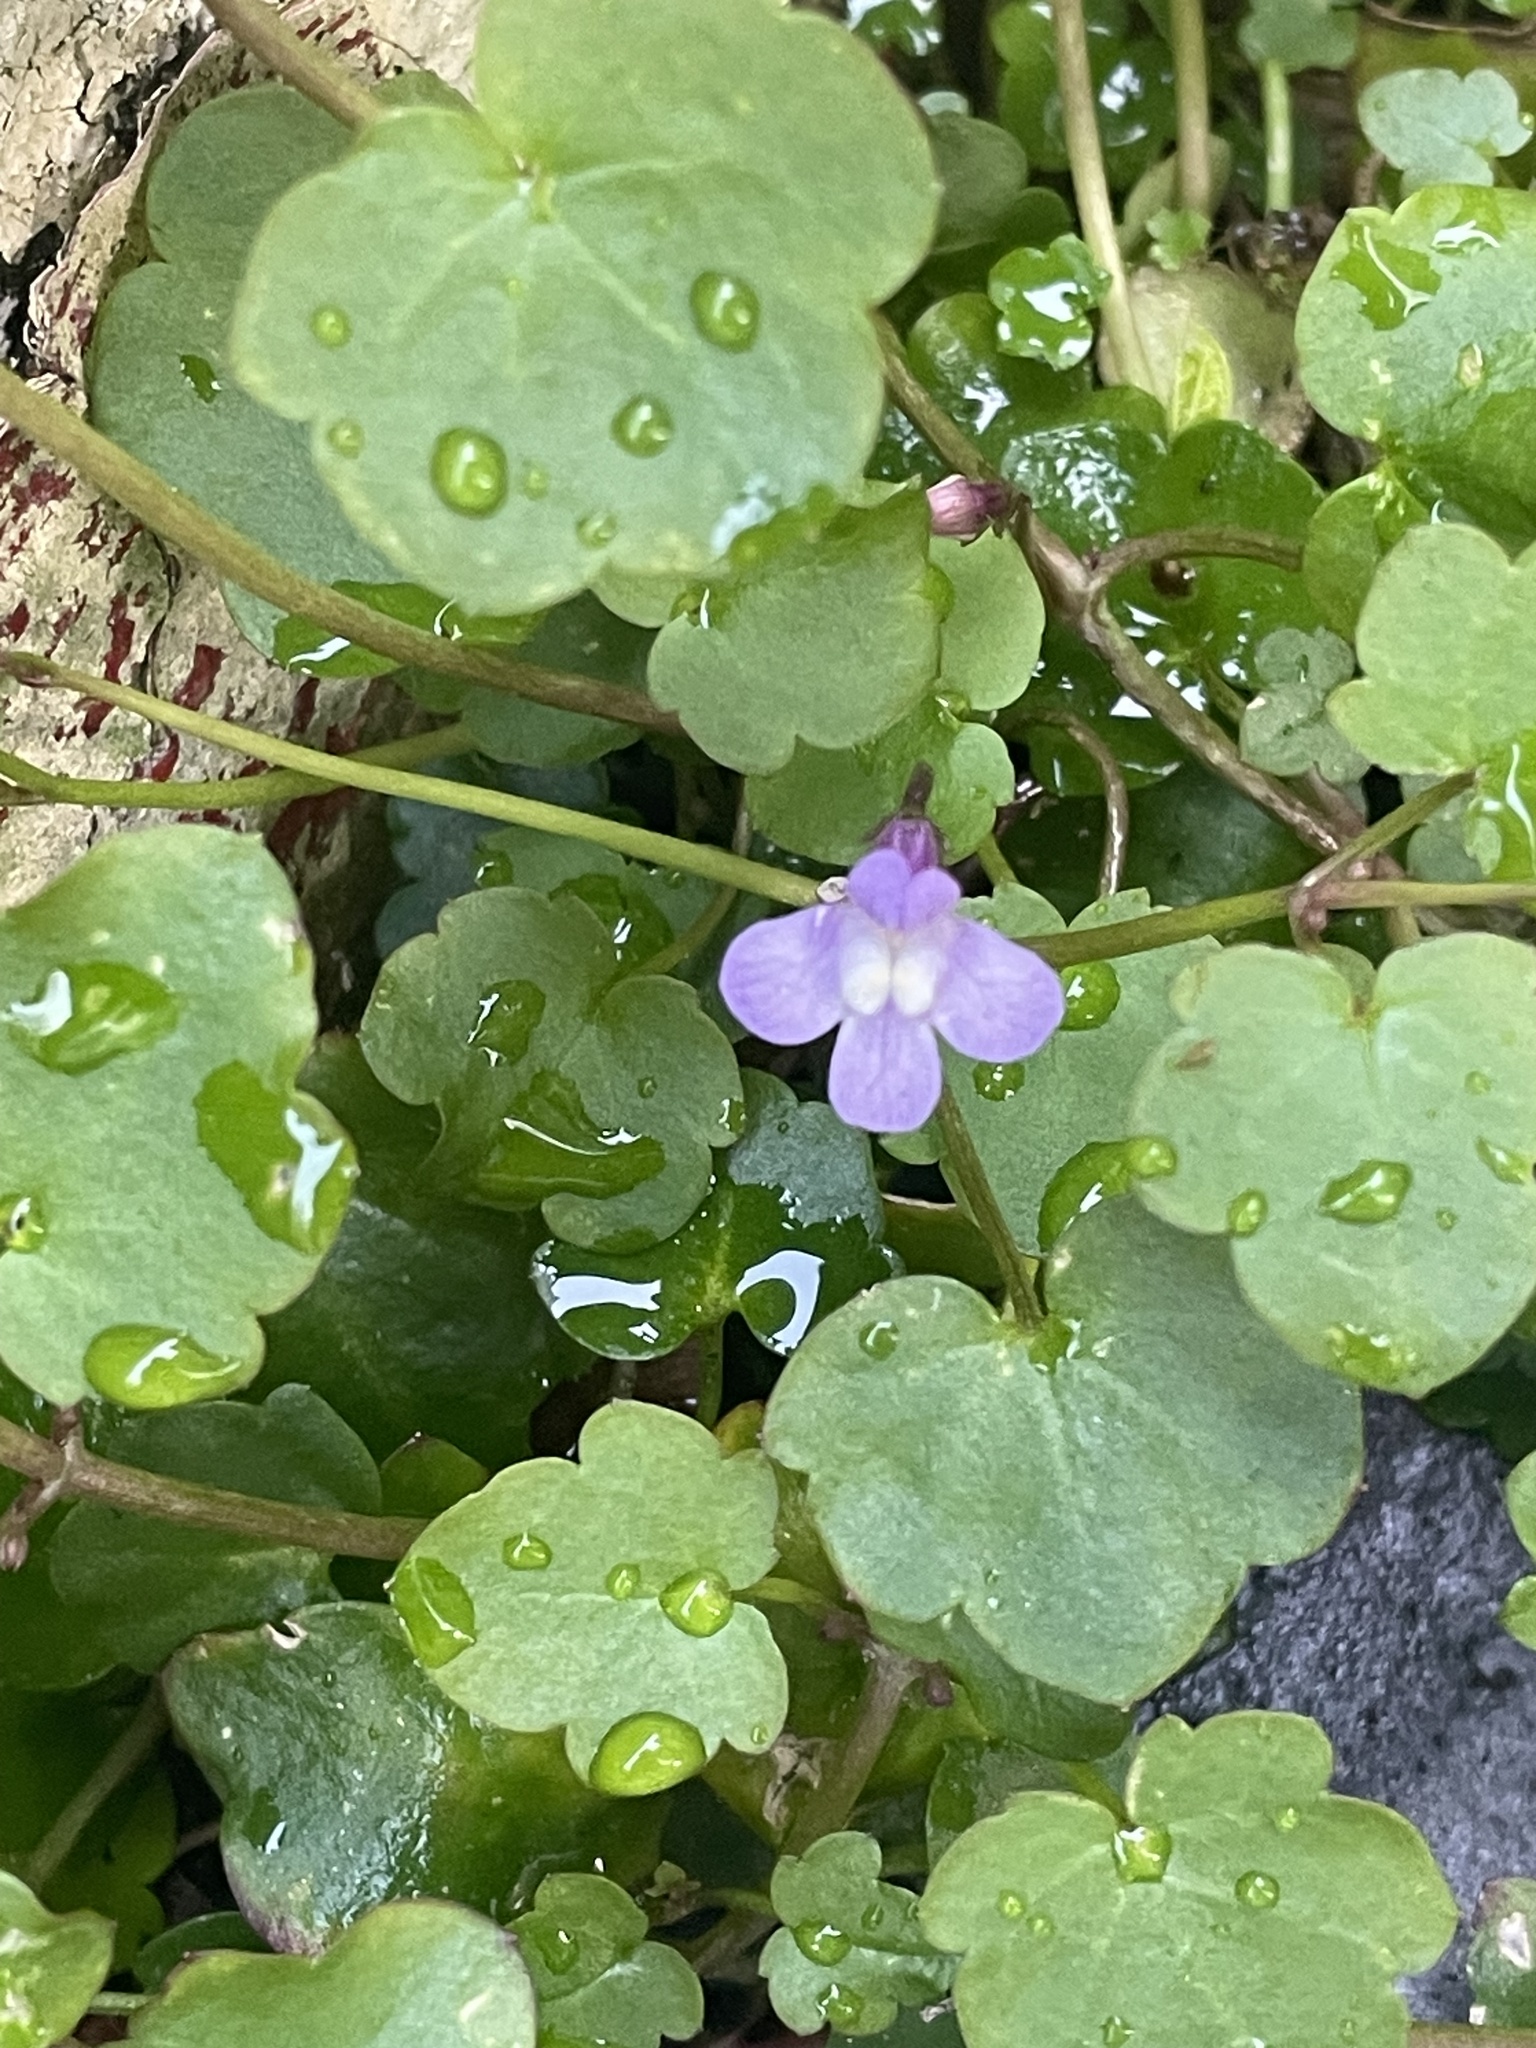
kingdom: Plantae
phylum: Tracheophyta
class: Magnoliopsida
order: Lamiales
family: Plantaginaceae
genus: Cymbalaria
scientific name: Cymbalaria muralis
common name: Ivy-leaved toadflax
